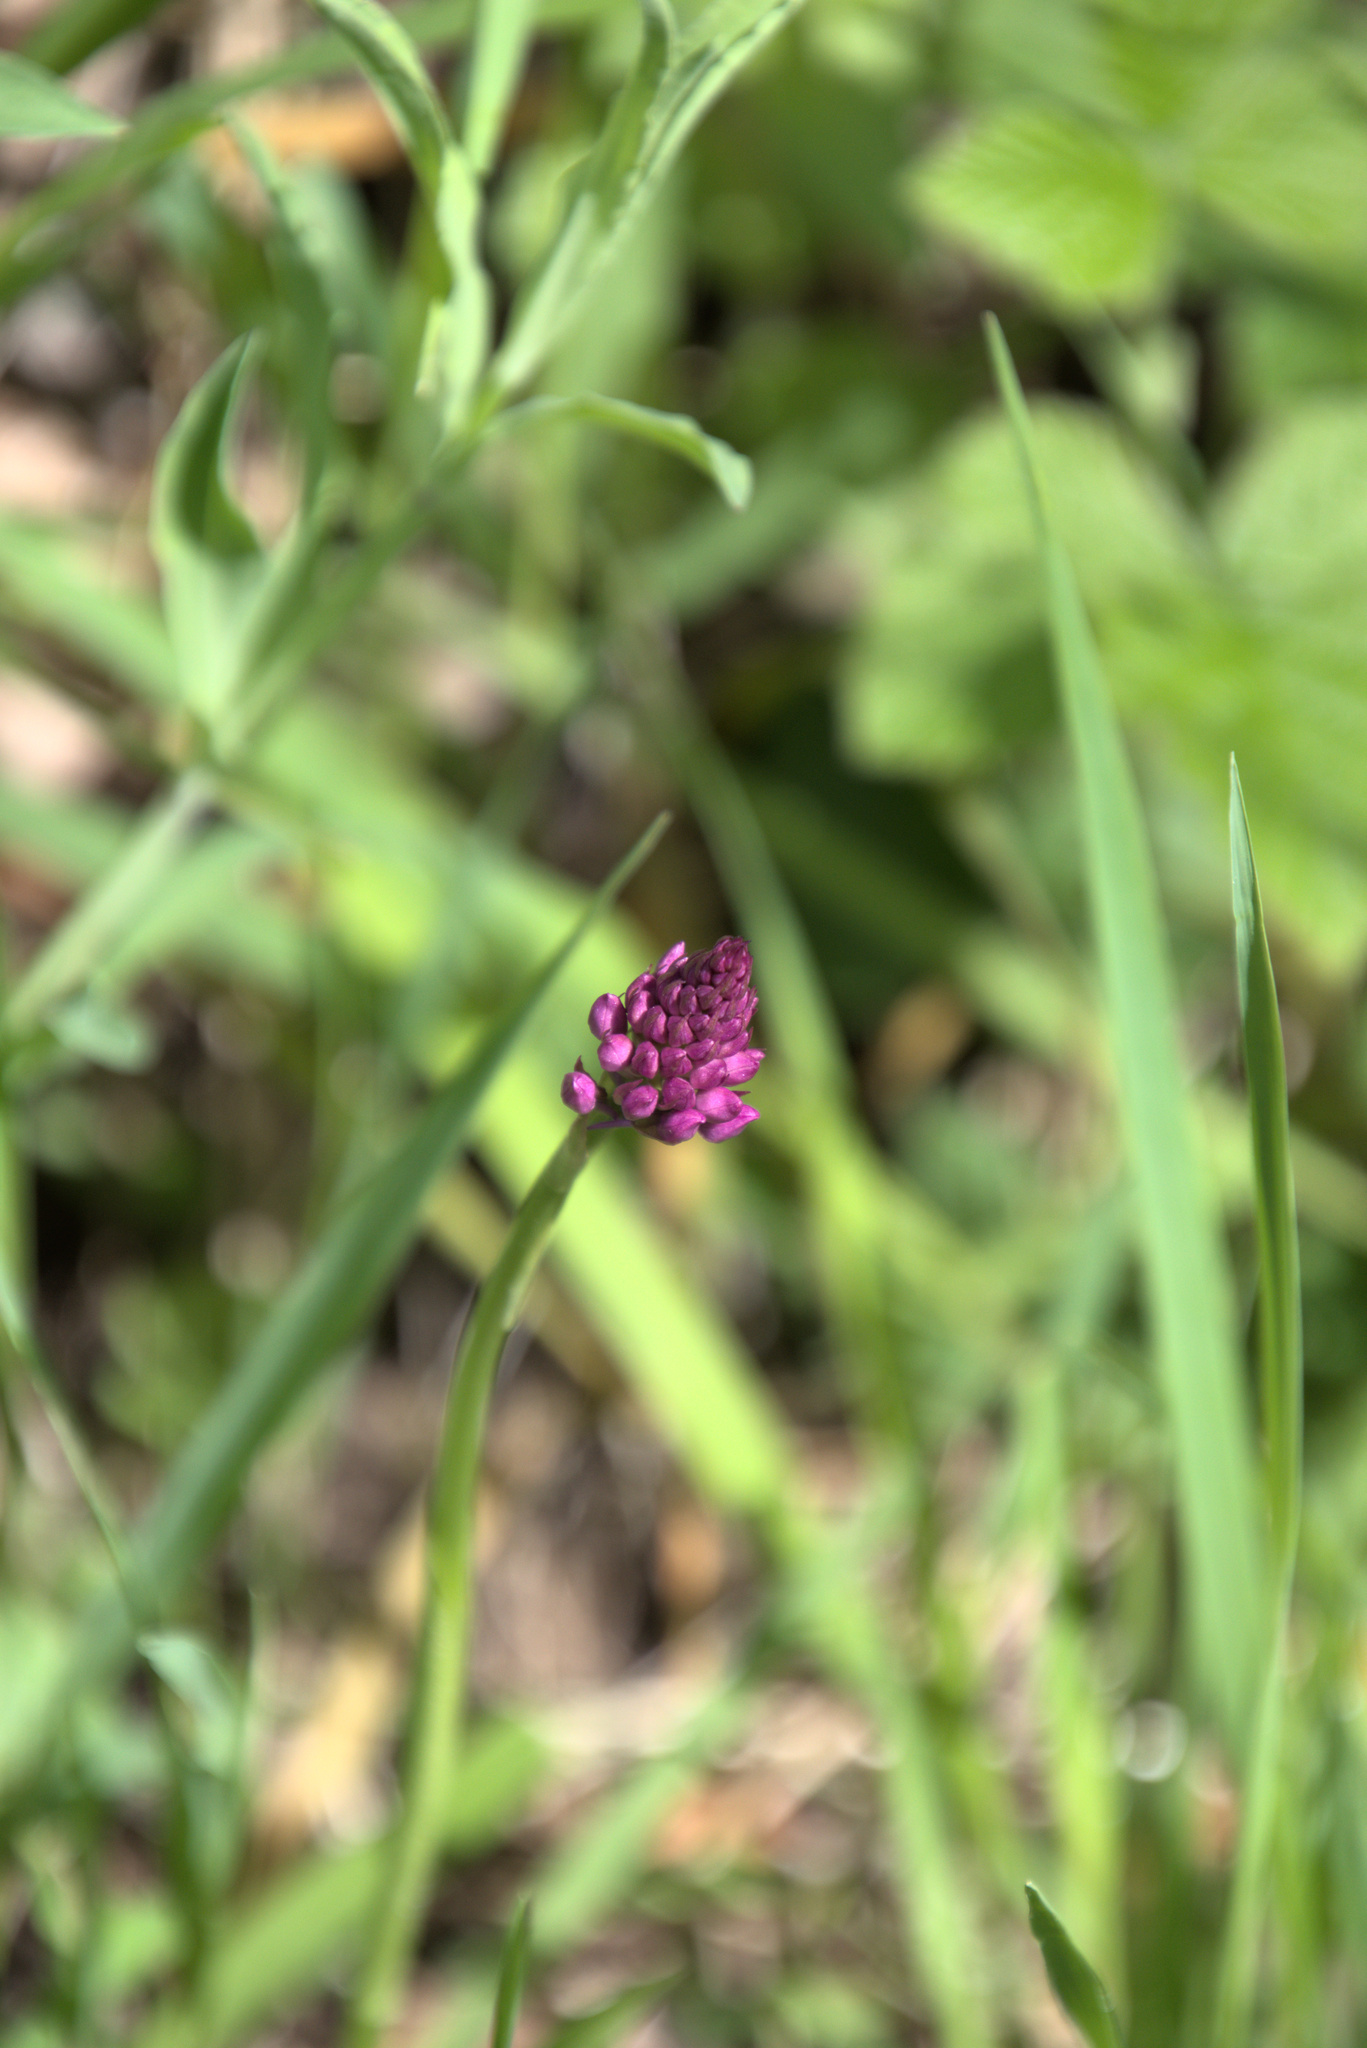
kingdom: Plantae
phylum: Tracheophyta
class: Liliopsida
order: Asparagales
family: Orchidaceae
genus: Anacamptis
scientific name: Anacamptis pyramidalis
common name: Pyramidal orchid
